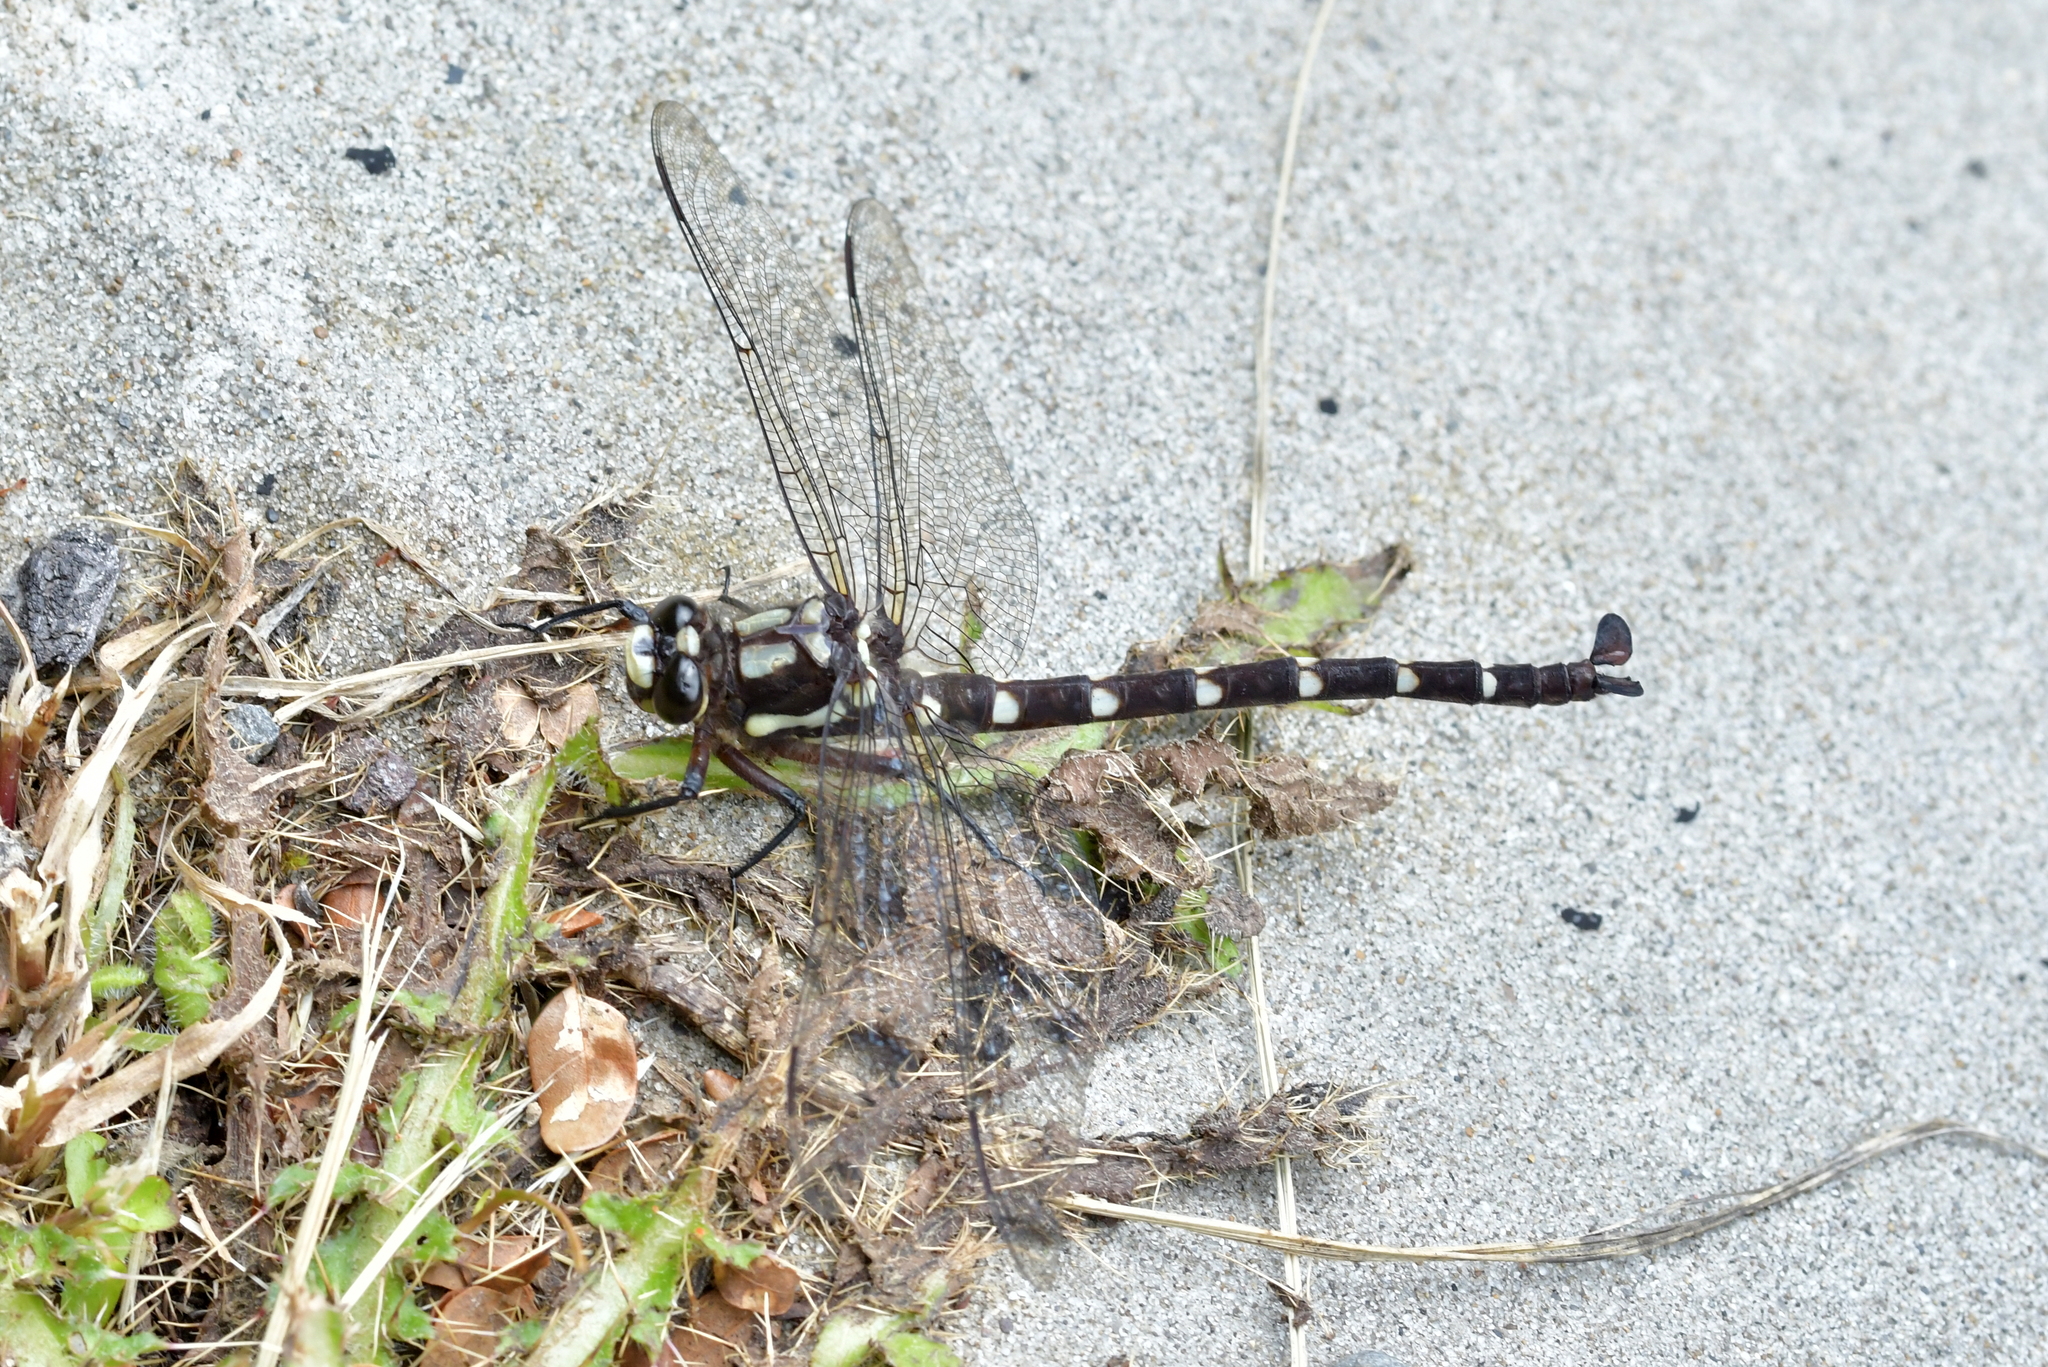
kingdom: Animalia
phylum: Arthropoda
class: Insecta
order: Odonata
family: Petaluridae
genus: Uropetala
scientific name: Uropetala carovei
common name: Bush giant dragonfly
